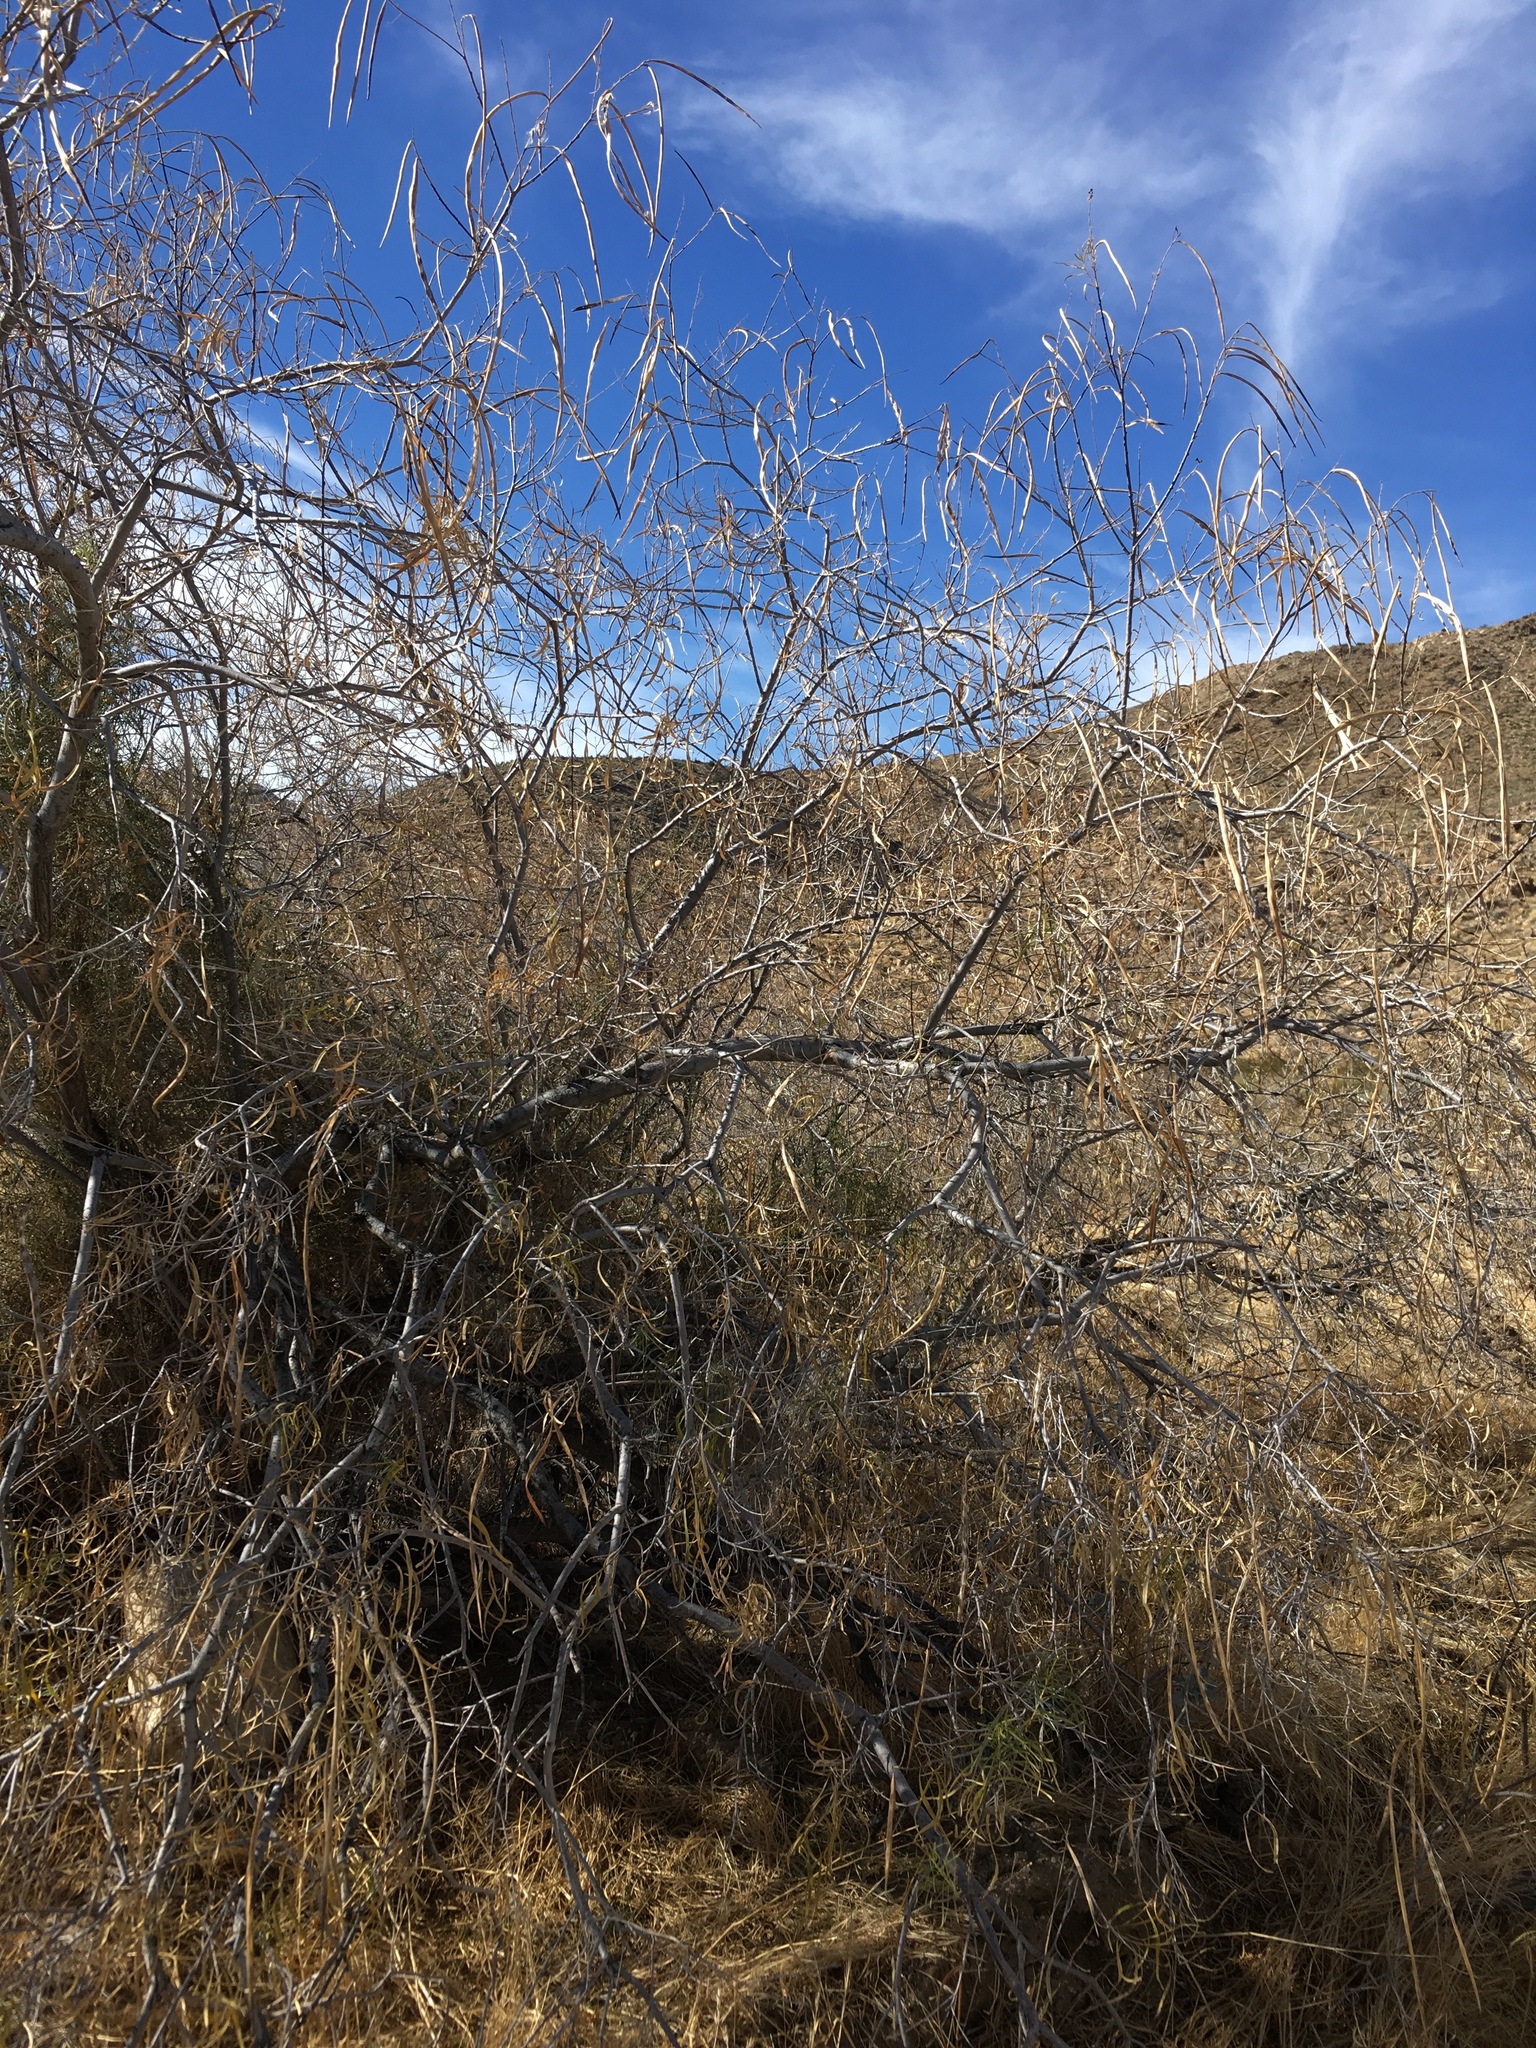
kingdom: Plantae
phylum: Tracheophyta
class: Magnoliopsida
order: Lamiales
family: Bignoniaceae
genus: Chilopsis
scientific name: Chilopsis linearis
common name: Desert-willow
